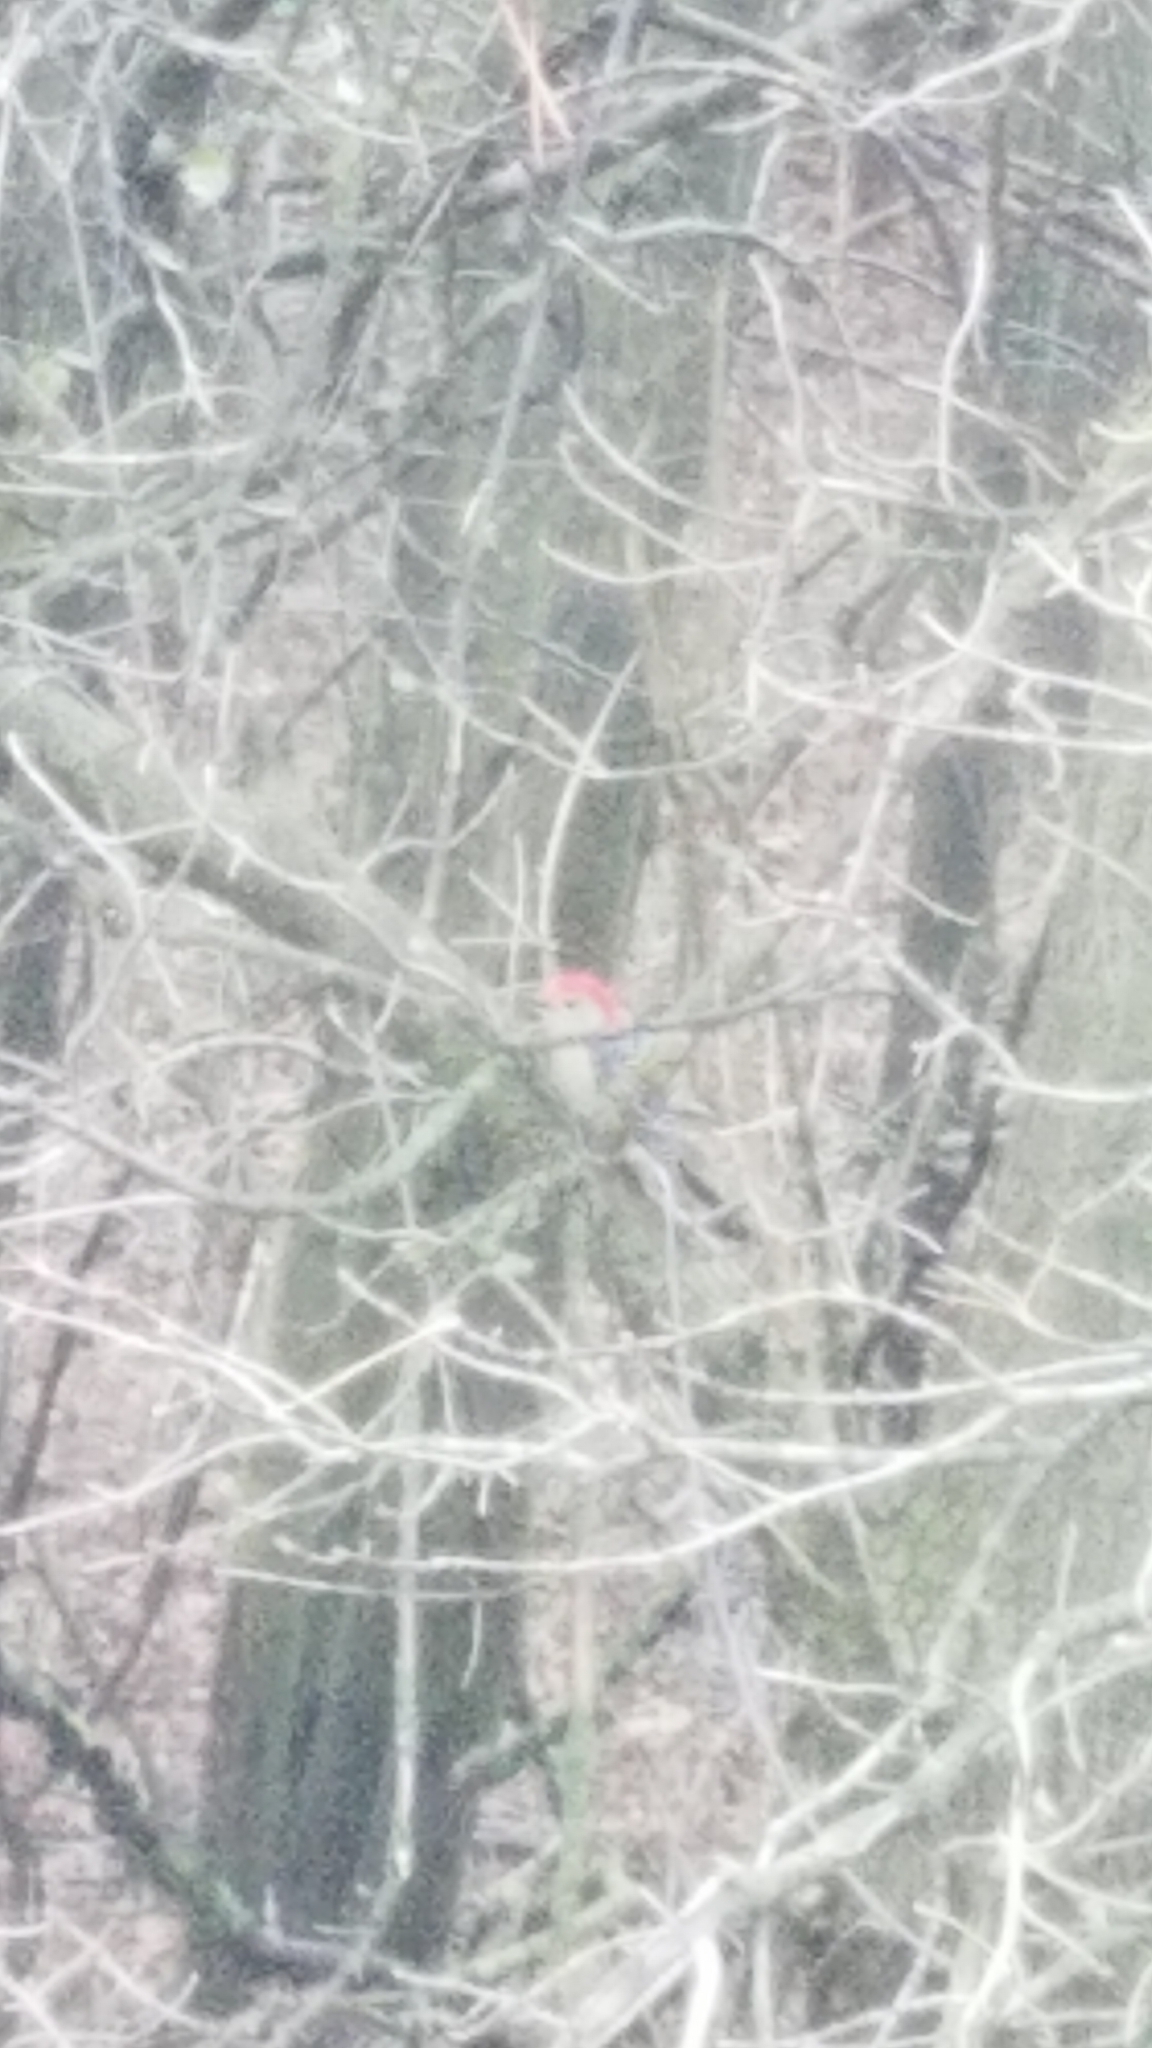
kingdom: Animalia
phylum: Chordata
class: Aves
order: Piciformes
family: Picidae
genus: Melanerpes
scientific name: Melanerpes carolinus
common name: Red-bellied woodpecker
